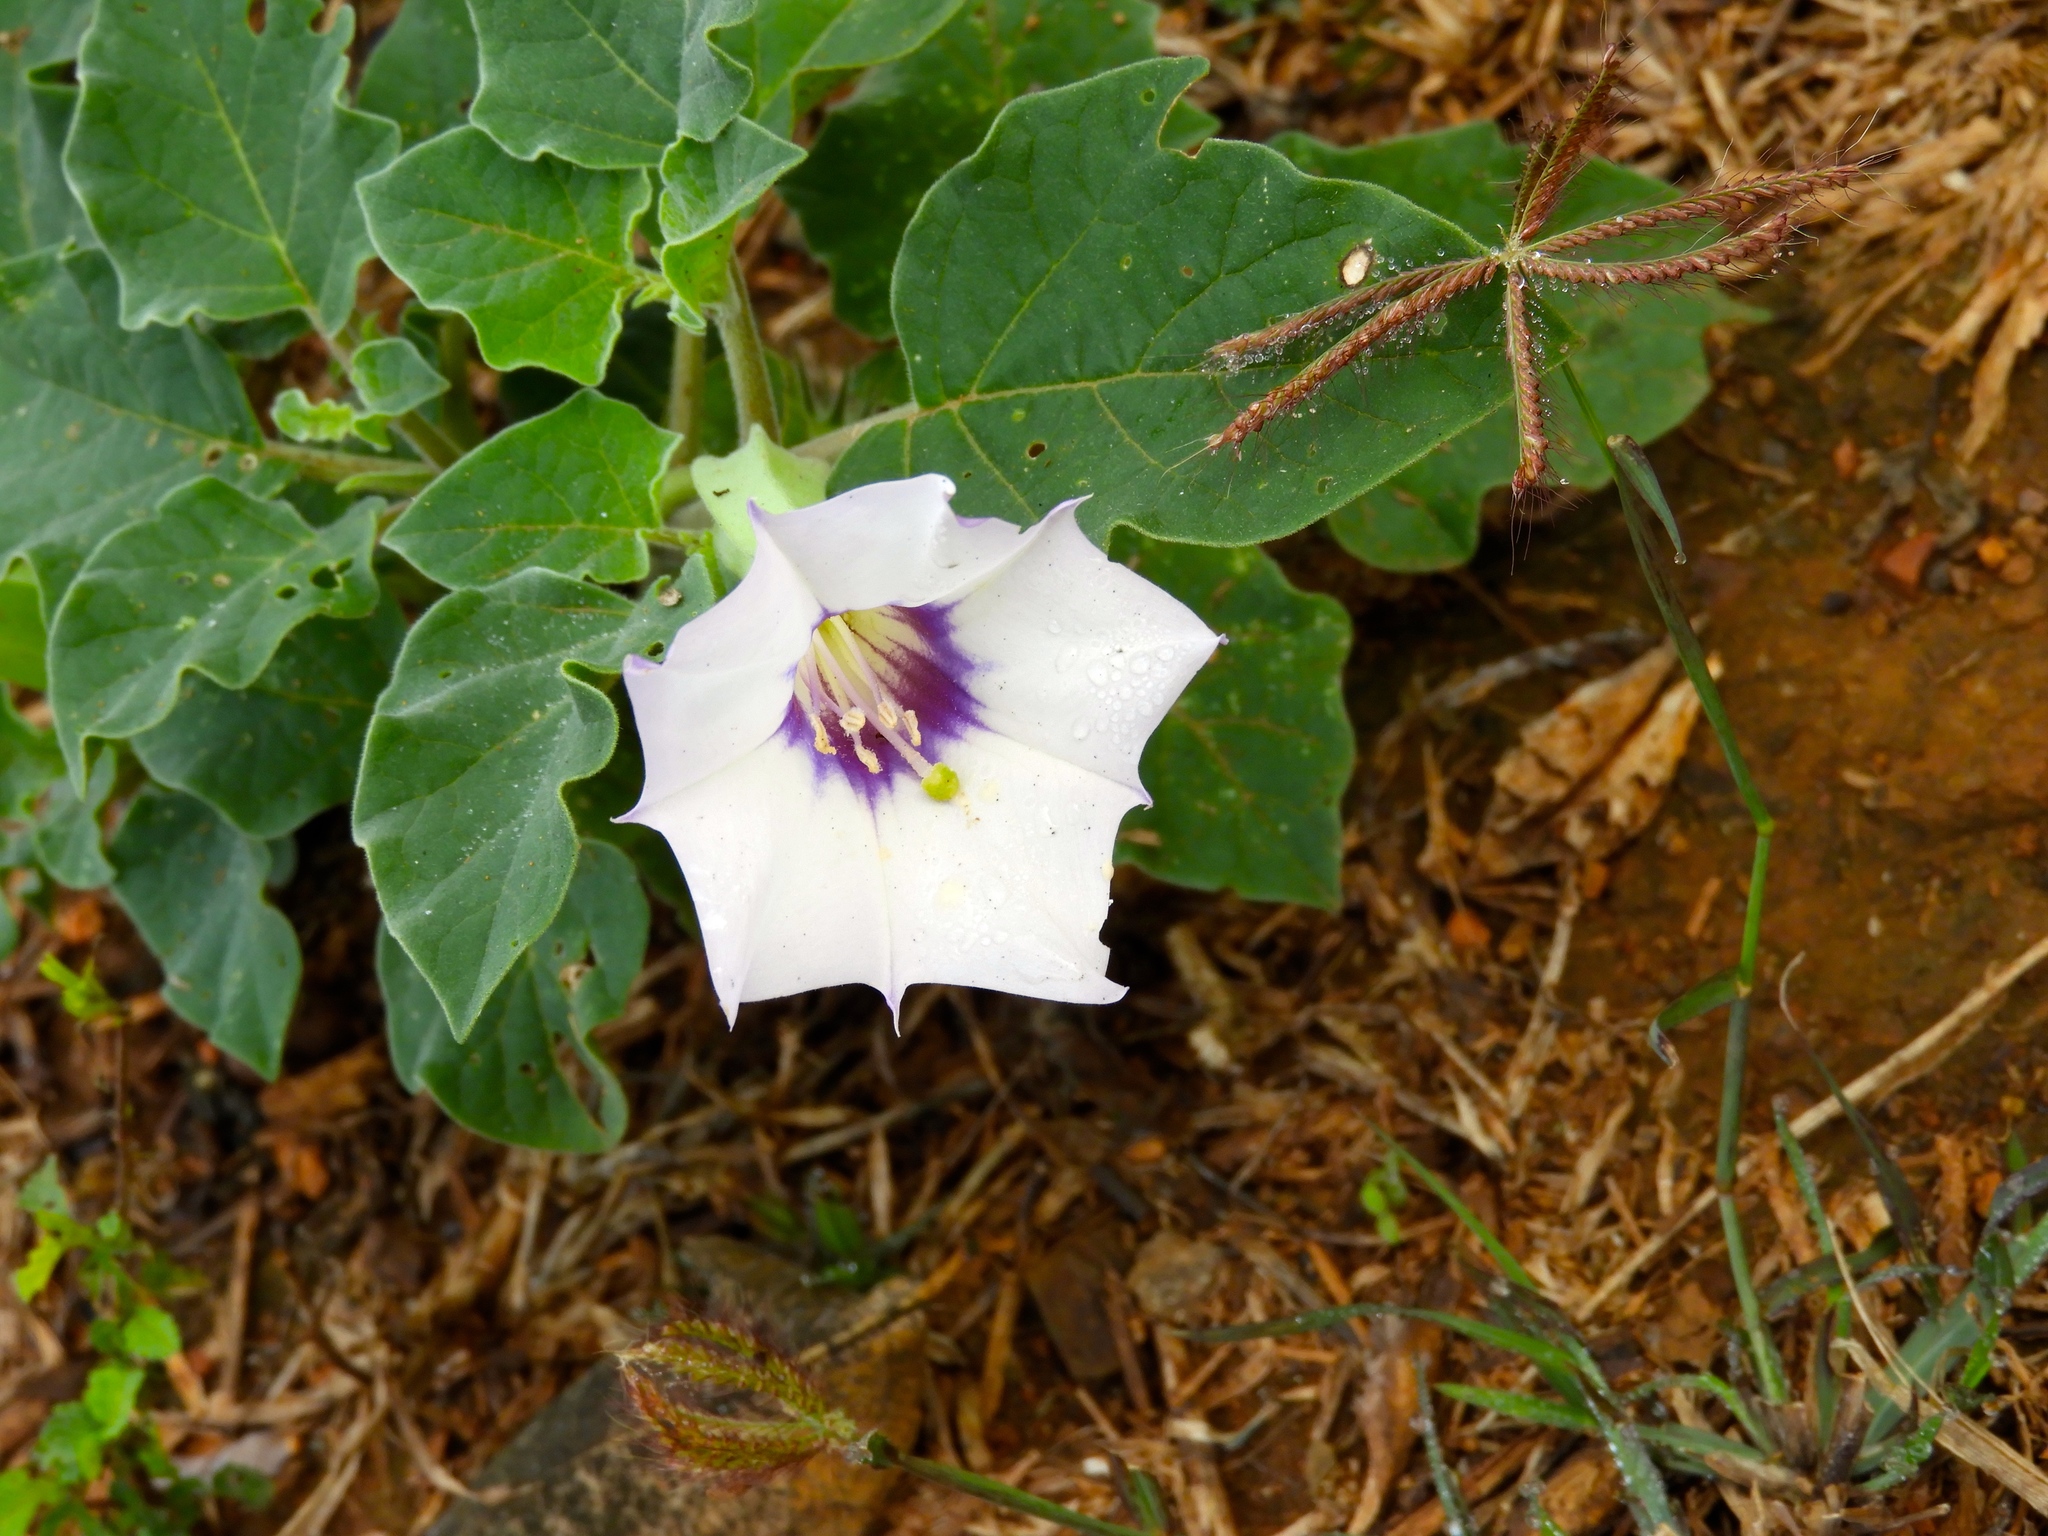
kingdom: Plantae
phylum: Tracheophyta
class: Magnoliopsida
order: Solanales
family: Solanaceae
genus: Datura
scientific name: Datura
